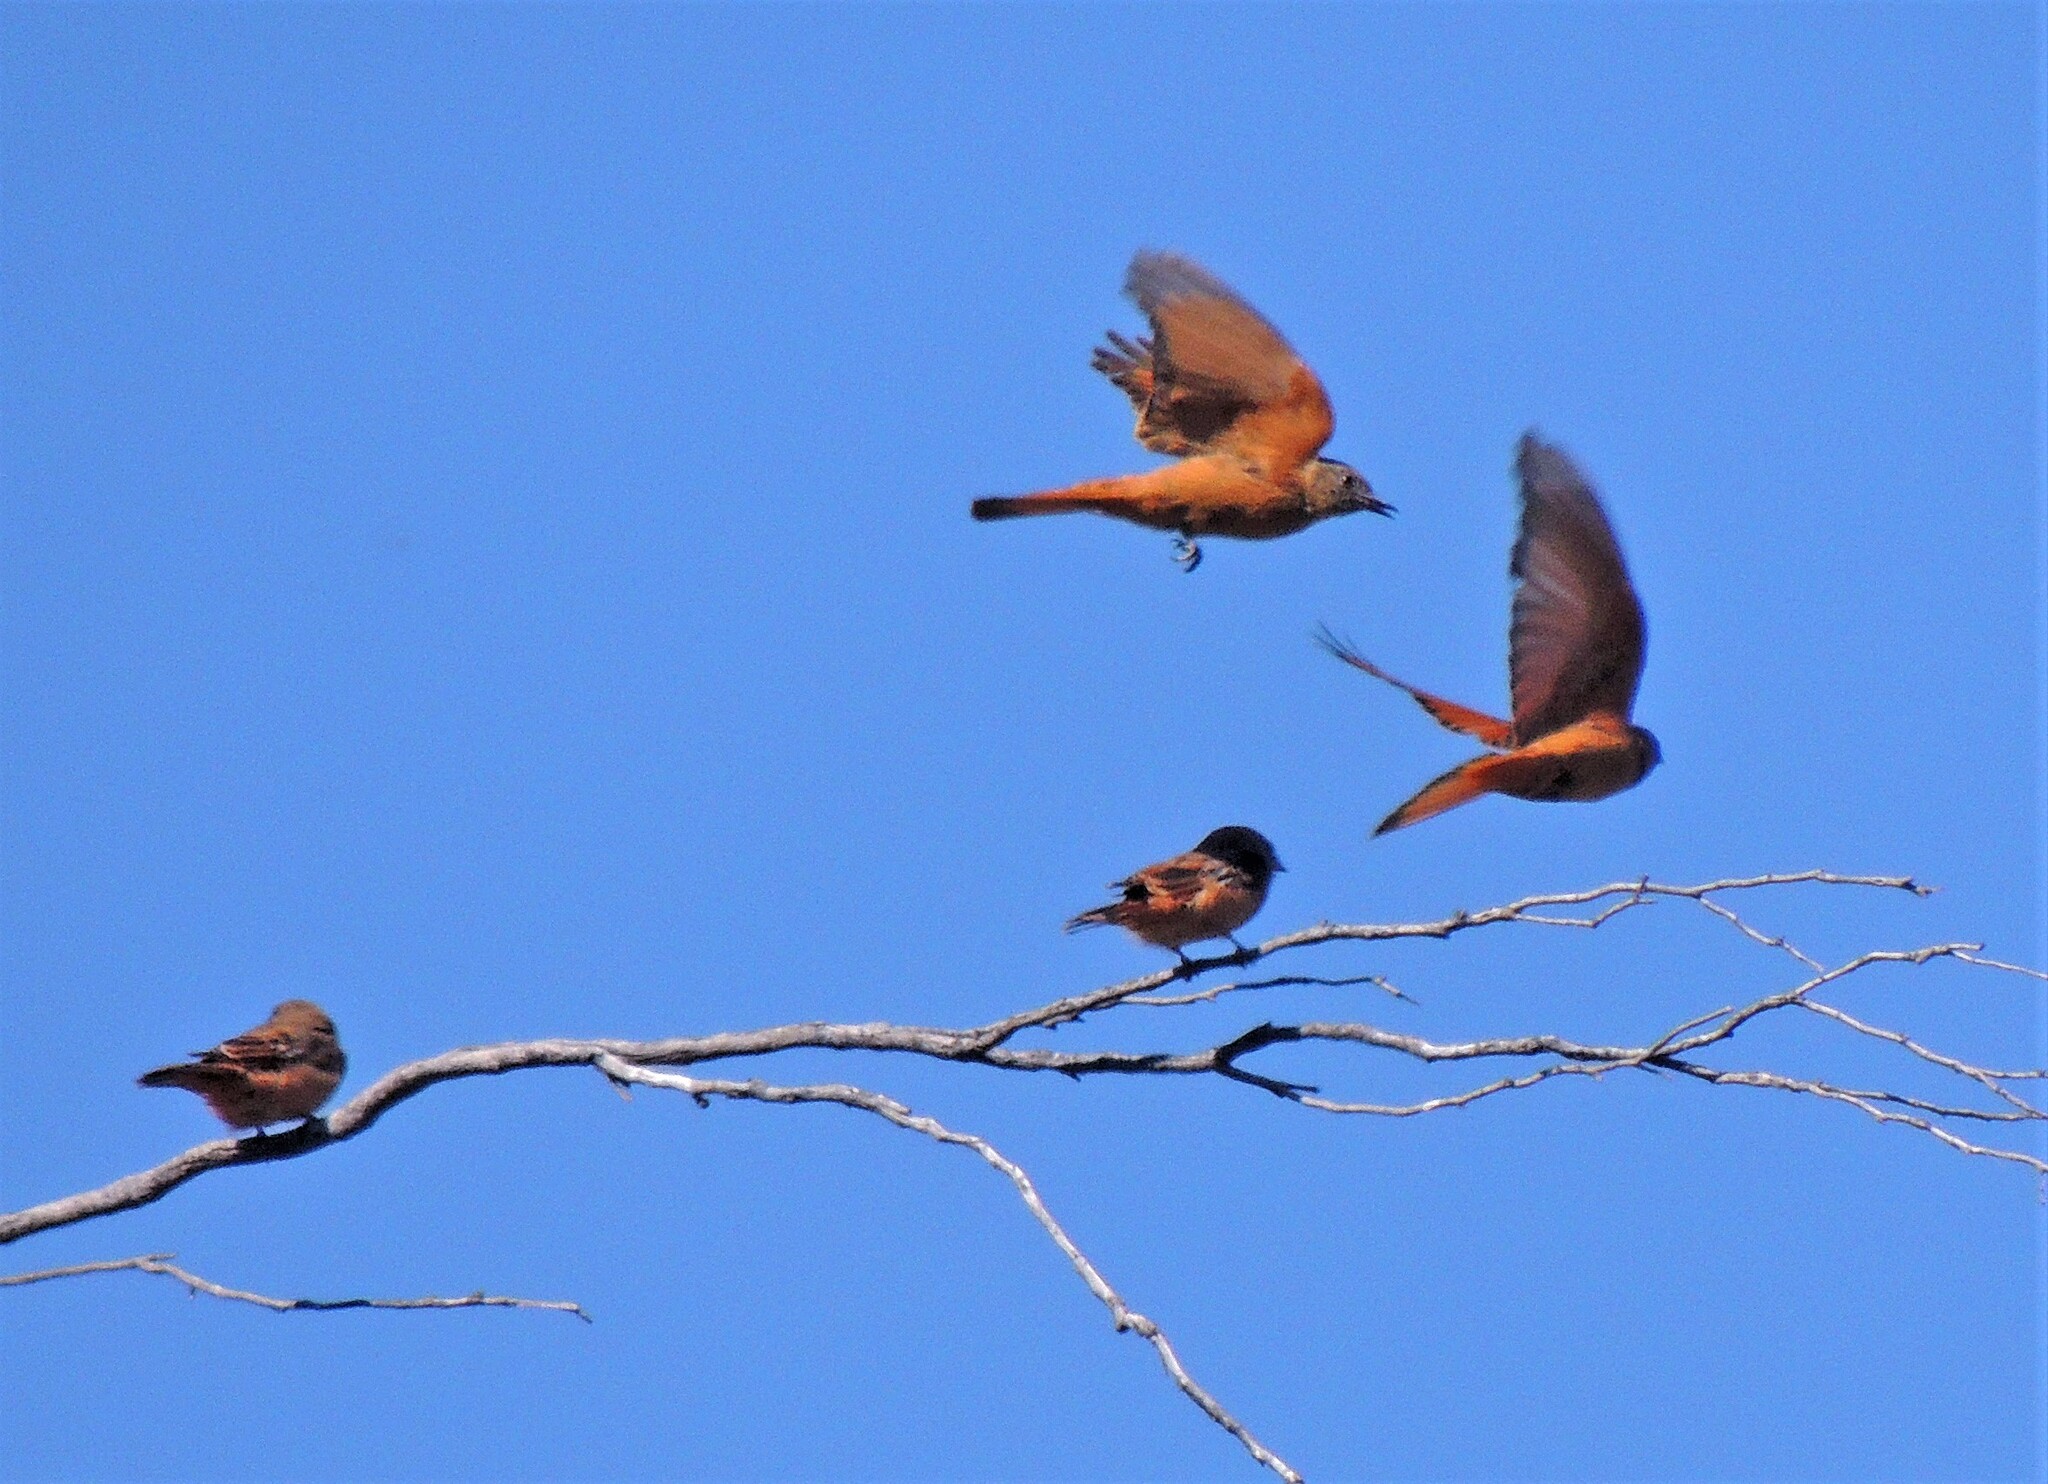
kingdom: Animalia
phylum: Chordata
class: Aves
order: Passeriformes
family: Tyrannidae
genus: Hirundinea
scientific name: Hirundinea ferruginea
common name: Cliff flycatcher
